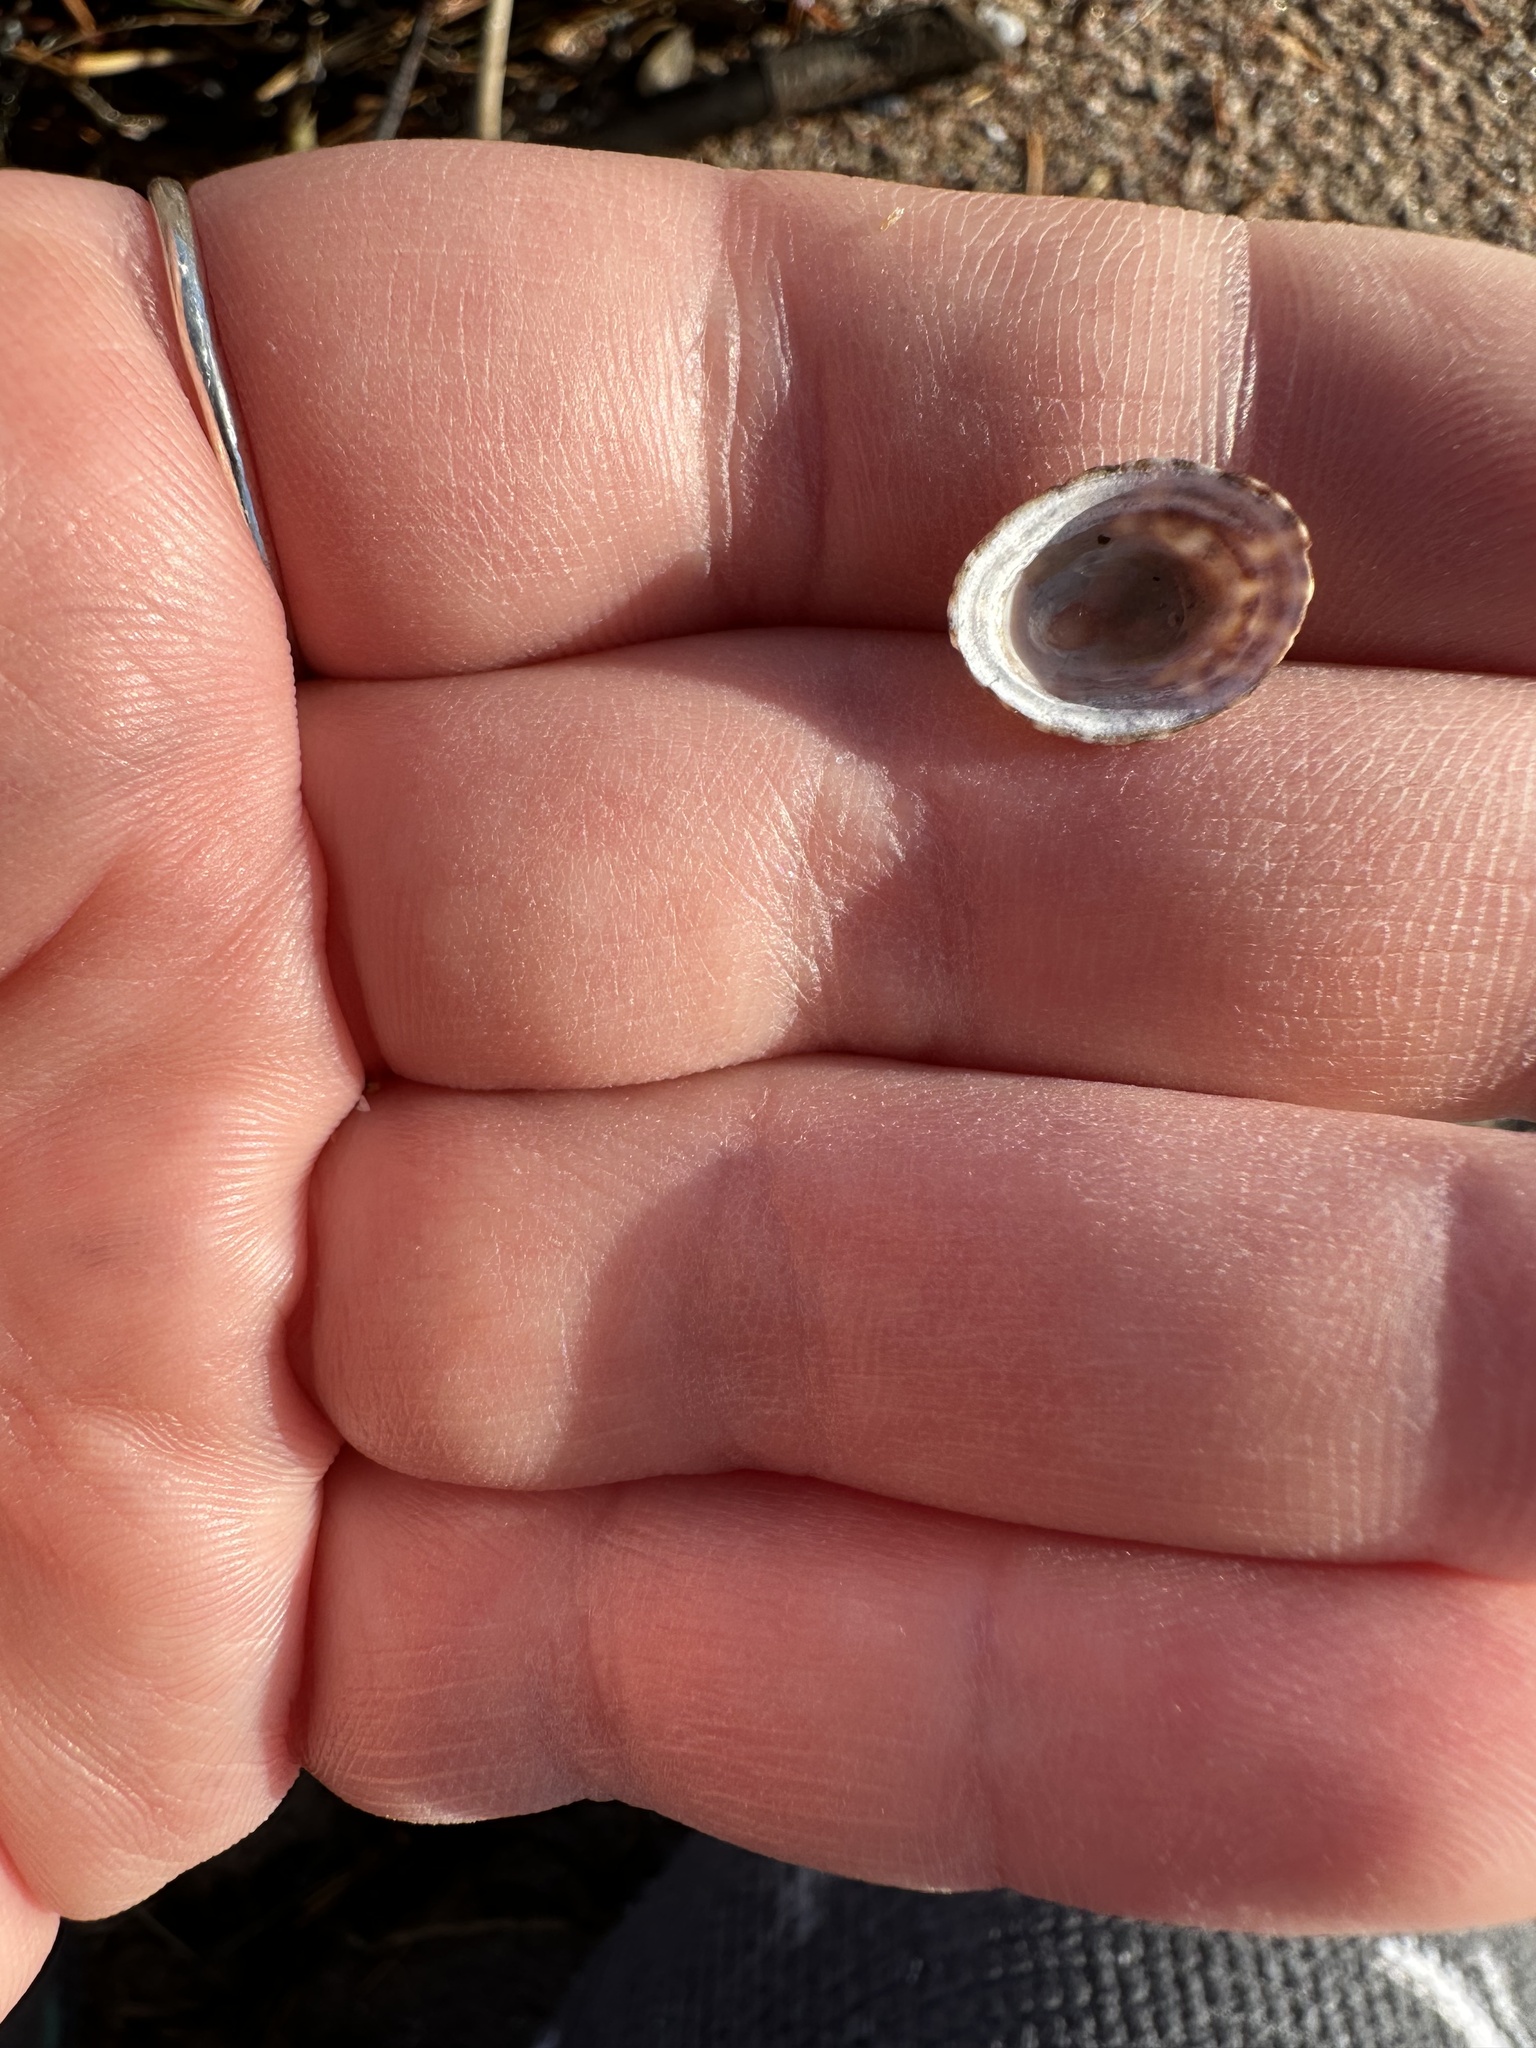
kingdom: Animalia
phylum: Mollusca
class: Gastropoda
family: Lottiidae
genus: Testudinalia
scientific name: Testudinalia testudinalis
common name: Common tortoiseshell limpet
